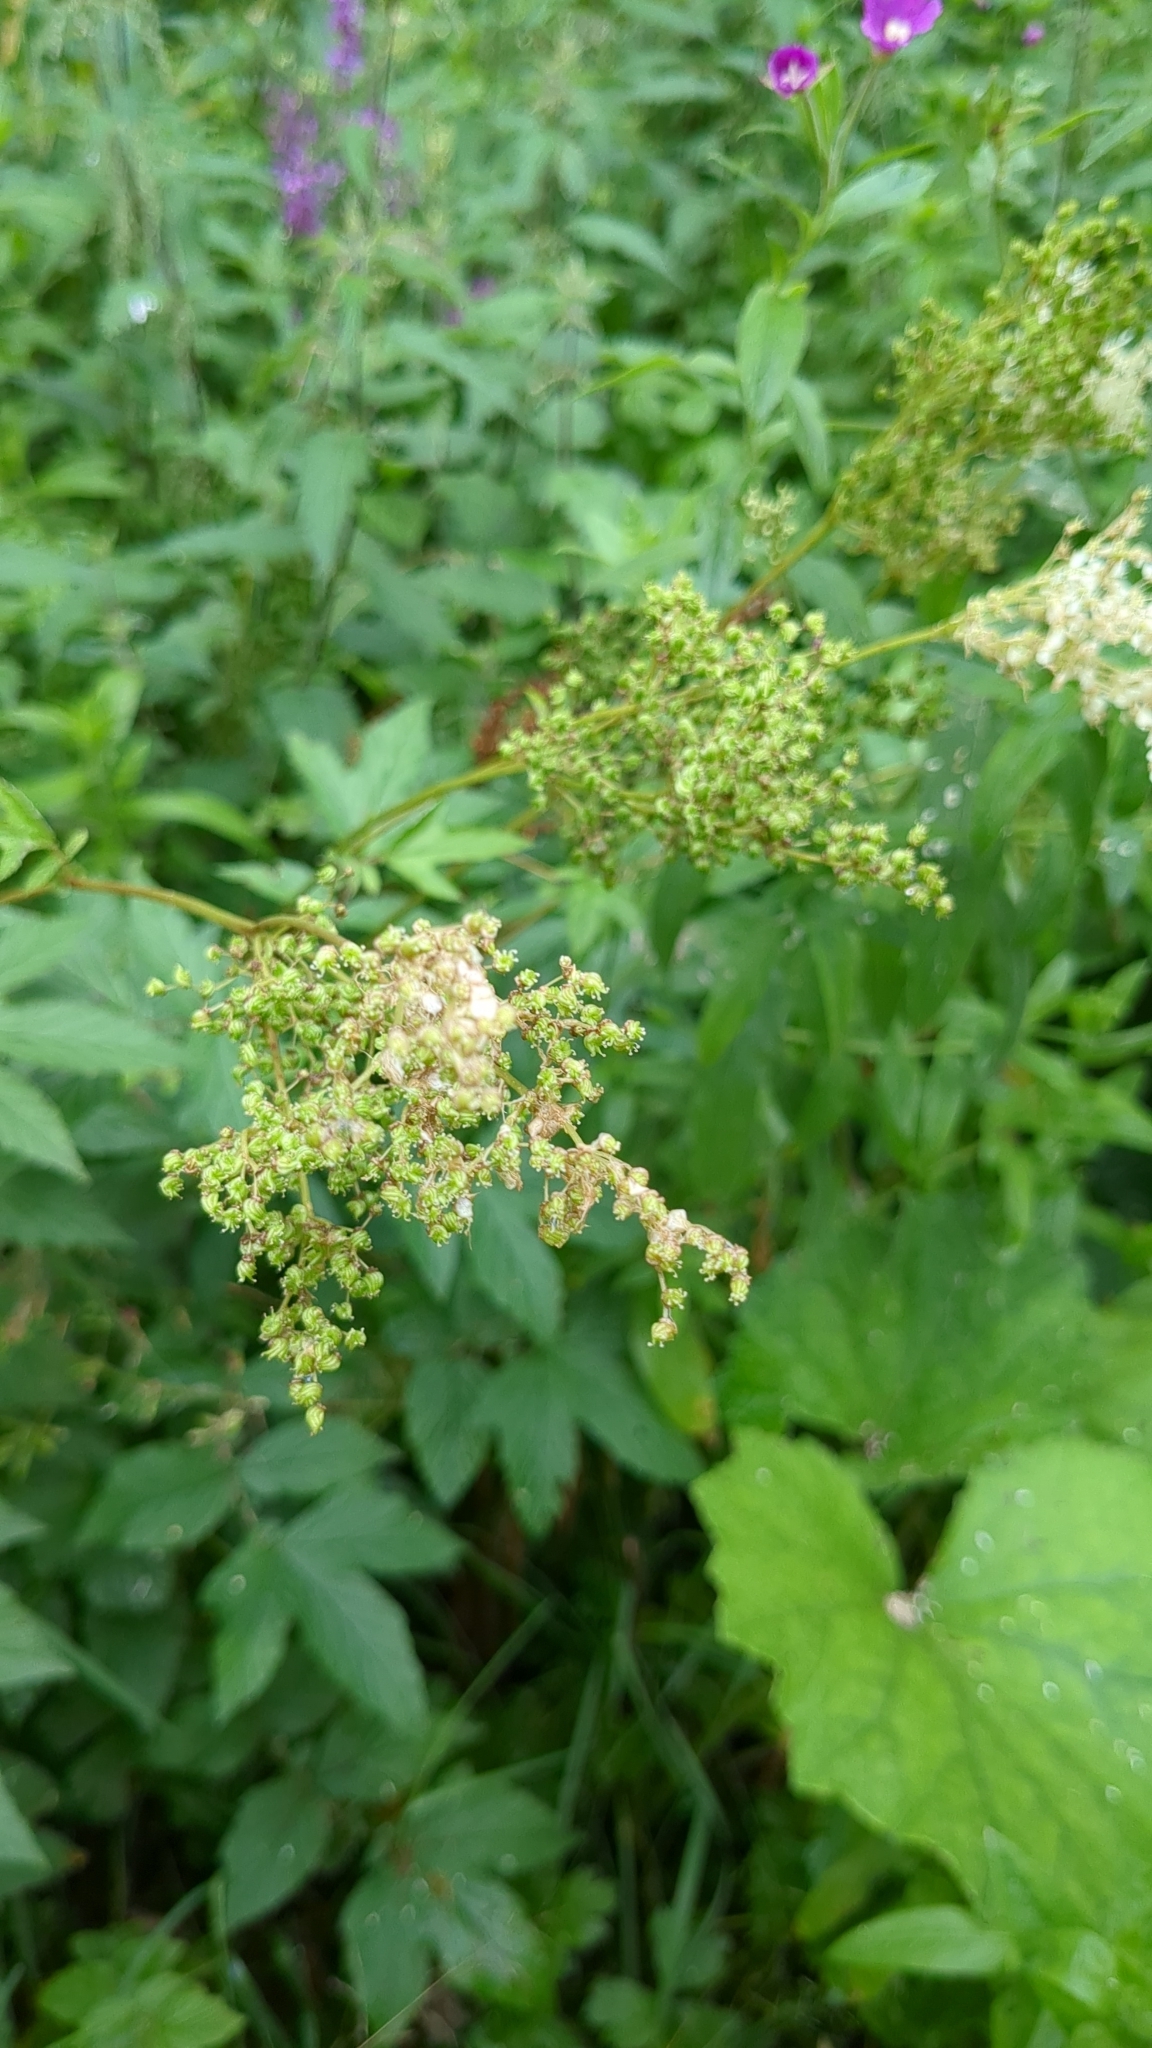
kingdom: Plantae
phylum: Tracheophyta
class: Magnoliopsida
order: Rosales
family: Rosaceae
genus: Filipendula
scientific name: Filipendula ulmaria
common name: Meadowsweet
